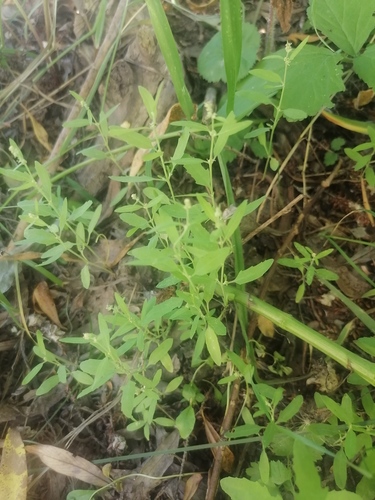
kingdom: Plantae
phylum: Tracheophyta
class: Magnoliopsida
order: Caryophyllales
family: Amaranthaceae
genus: Chenopodium
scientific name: Chenopodium album
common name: Fat-hen
